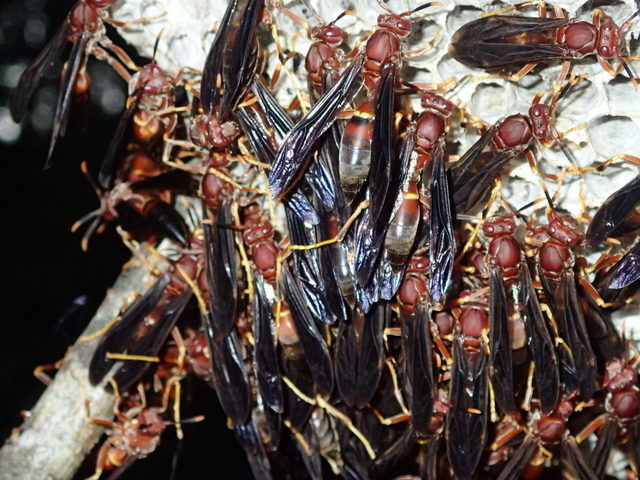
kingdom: Animalia
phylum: Arthropoda
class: Insecta
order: Hymenoptera
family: Eumenidae
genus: Polistes
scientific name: Polistes annularis
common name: Ringed paper wasp
